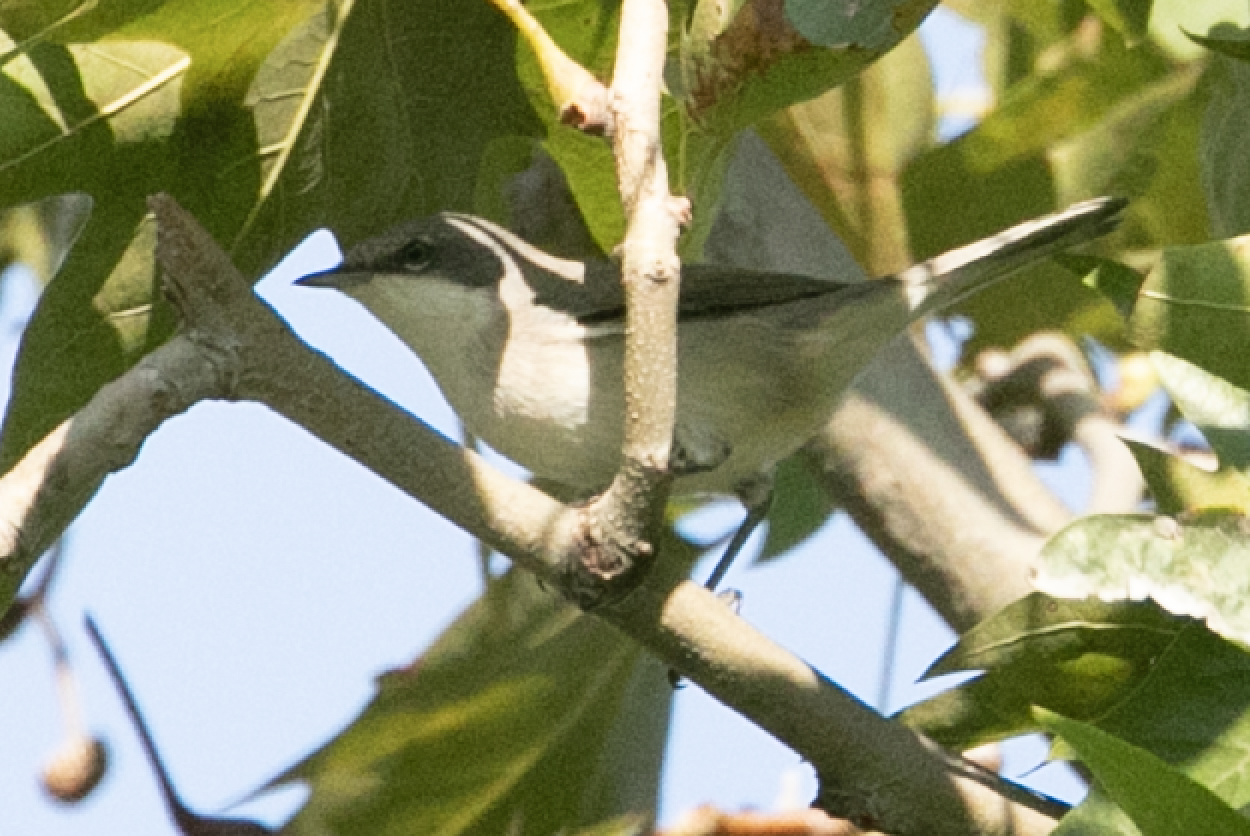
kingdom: Animalia
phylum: Chordata
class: Aves
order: Passeriformes
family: Sylviidae
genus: Sylvia
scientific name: Sylvia curruca
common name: Lesser whitethroat
